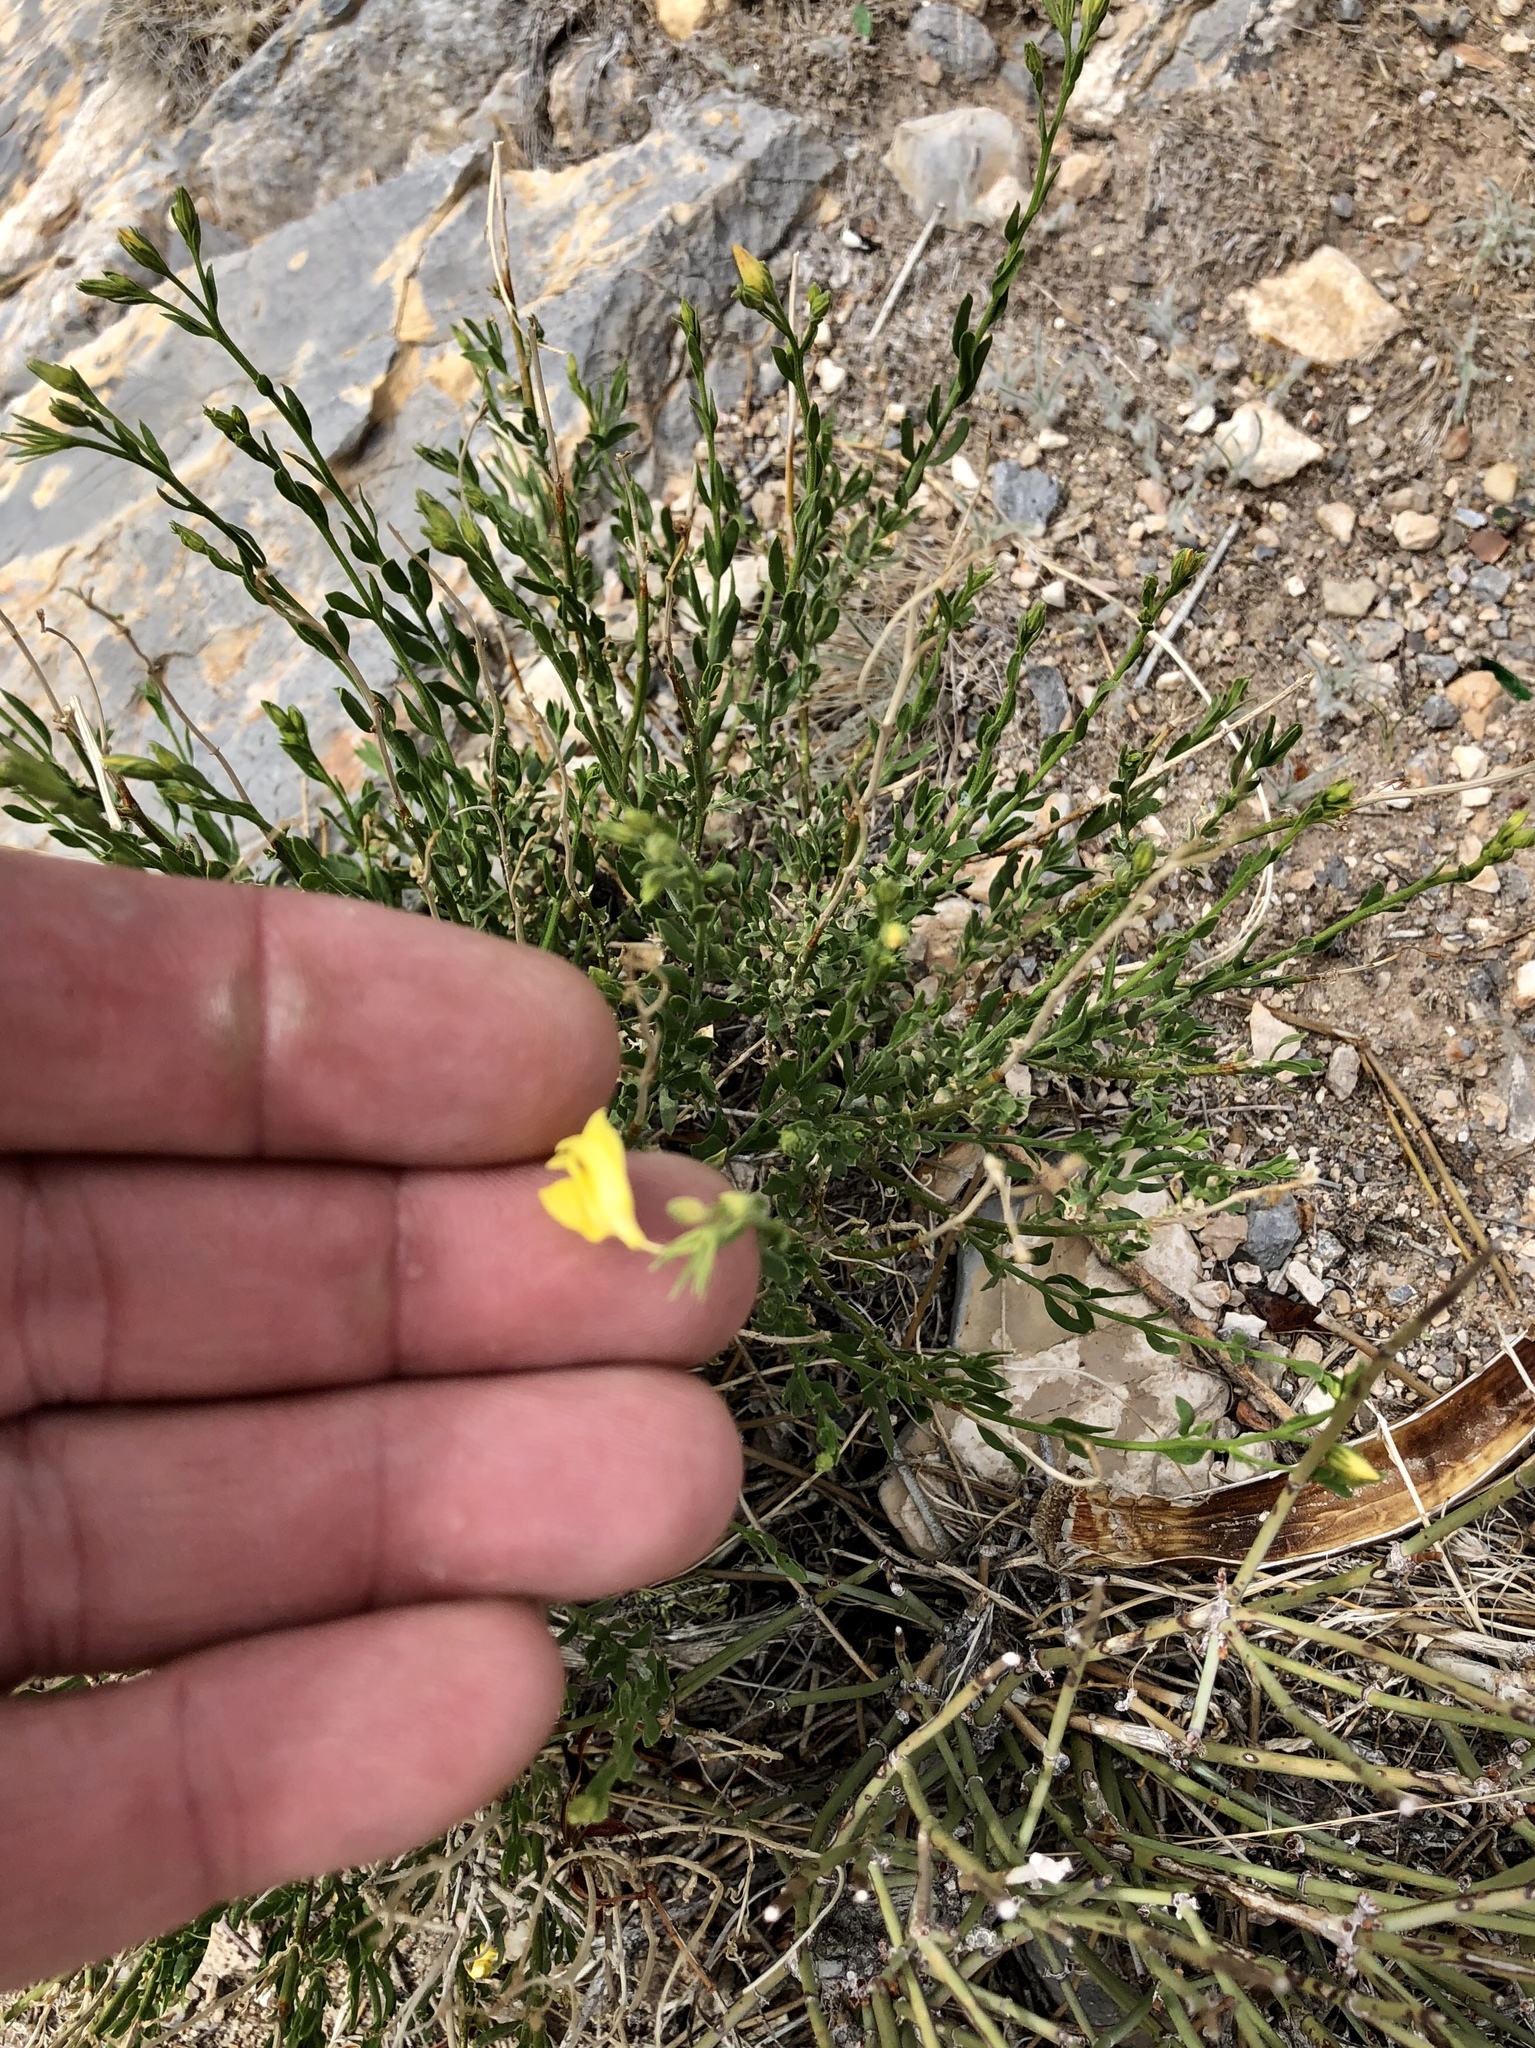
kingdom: Plantae
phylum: Tracheophyta
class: Magnoliopsida
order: Lamiales
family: Oleaceae
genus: Menodora
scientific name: Menodora scabra
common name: Rough menodora
